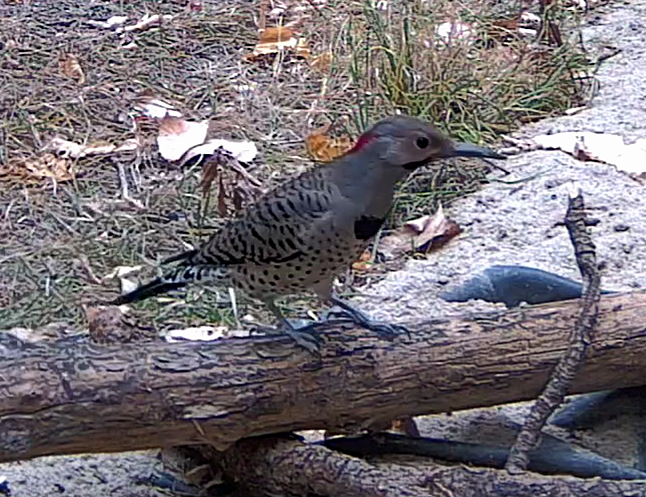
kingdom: Animalia
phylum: Chordata
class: Aves
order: Piciformes
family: Picidae
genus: Colaptes
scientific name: Colaptes auratus
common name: Northern flicker
